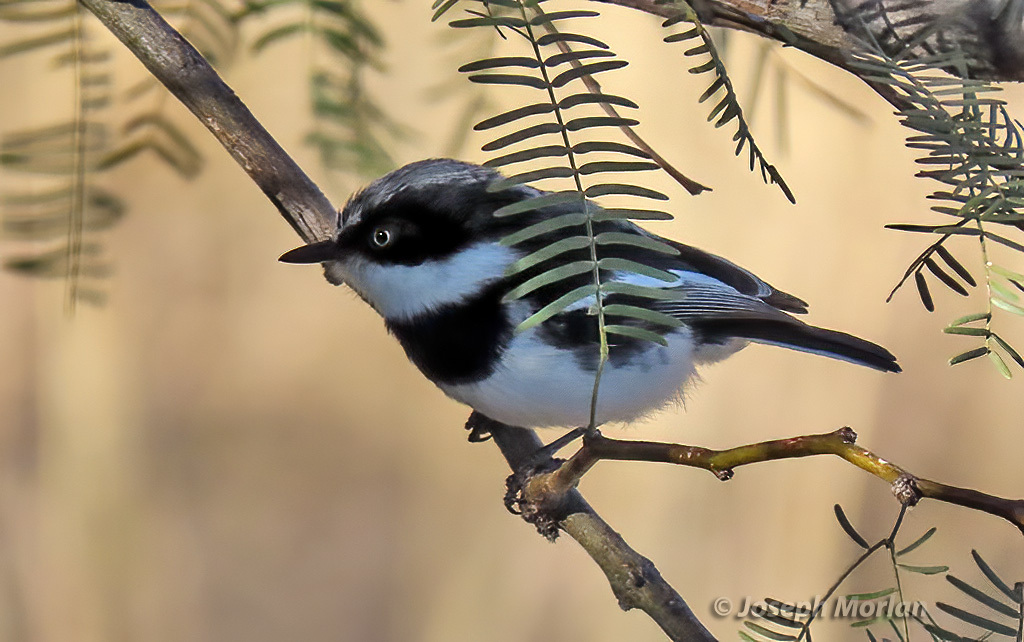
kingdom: Animalia
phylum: Chordata
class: Aves
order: Passeriformes
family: Platysteiridae
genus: Batis
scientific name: Batis pririt
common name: Pririt batis
